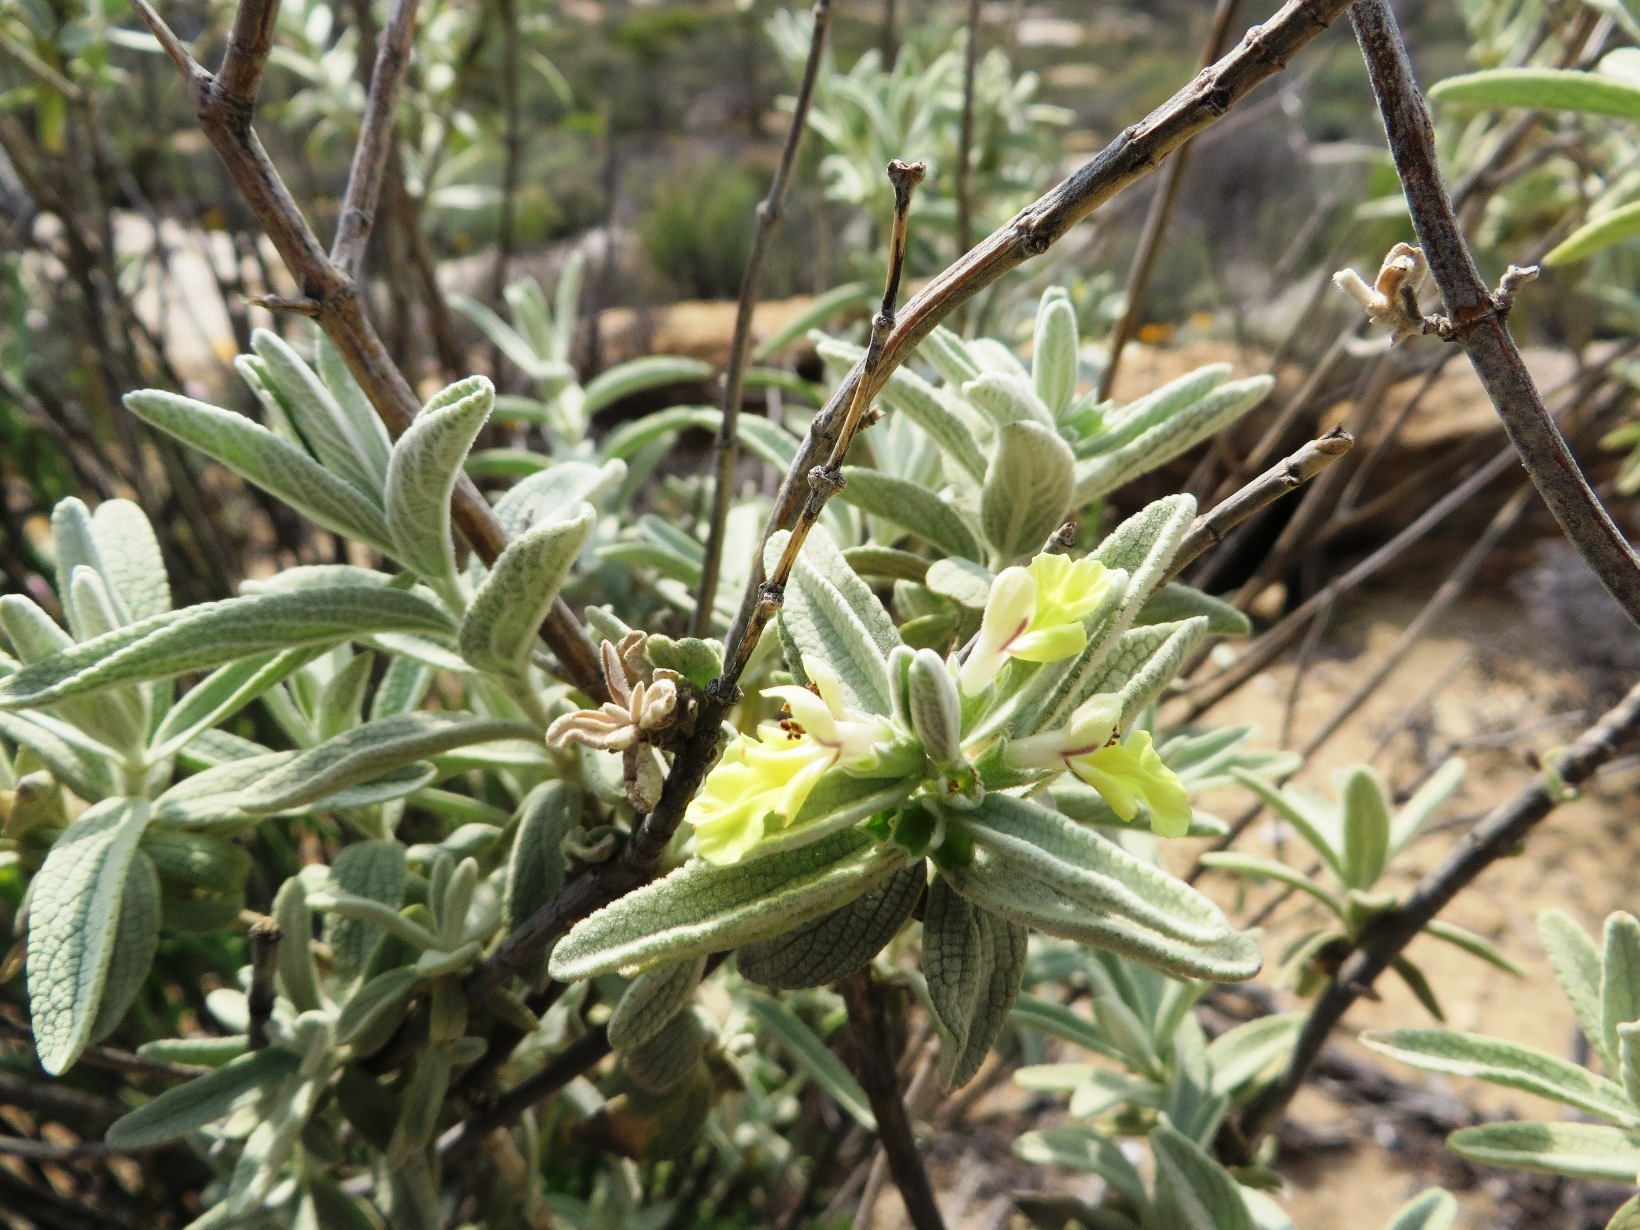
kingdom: Plantae
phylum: Tracheophyta
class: Magnoliopsida
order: Lamiales
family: Lamiaceae
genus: Stachys
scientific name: Stachys rugosa
